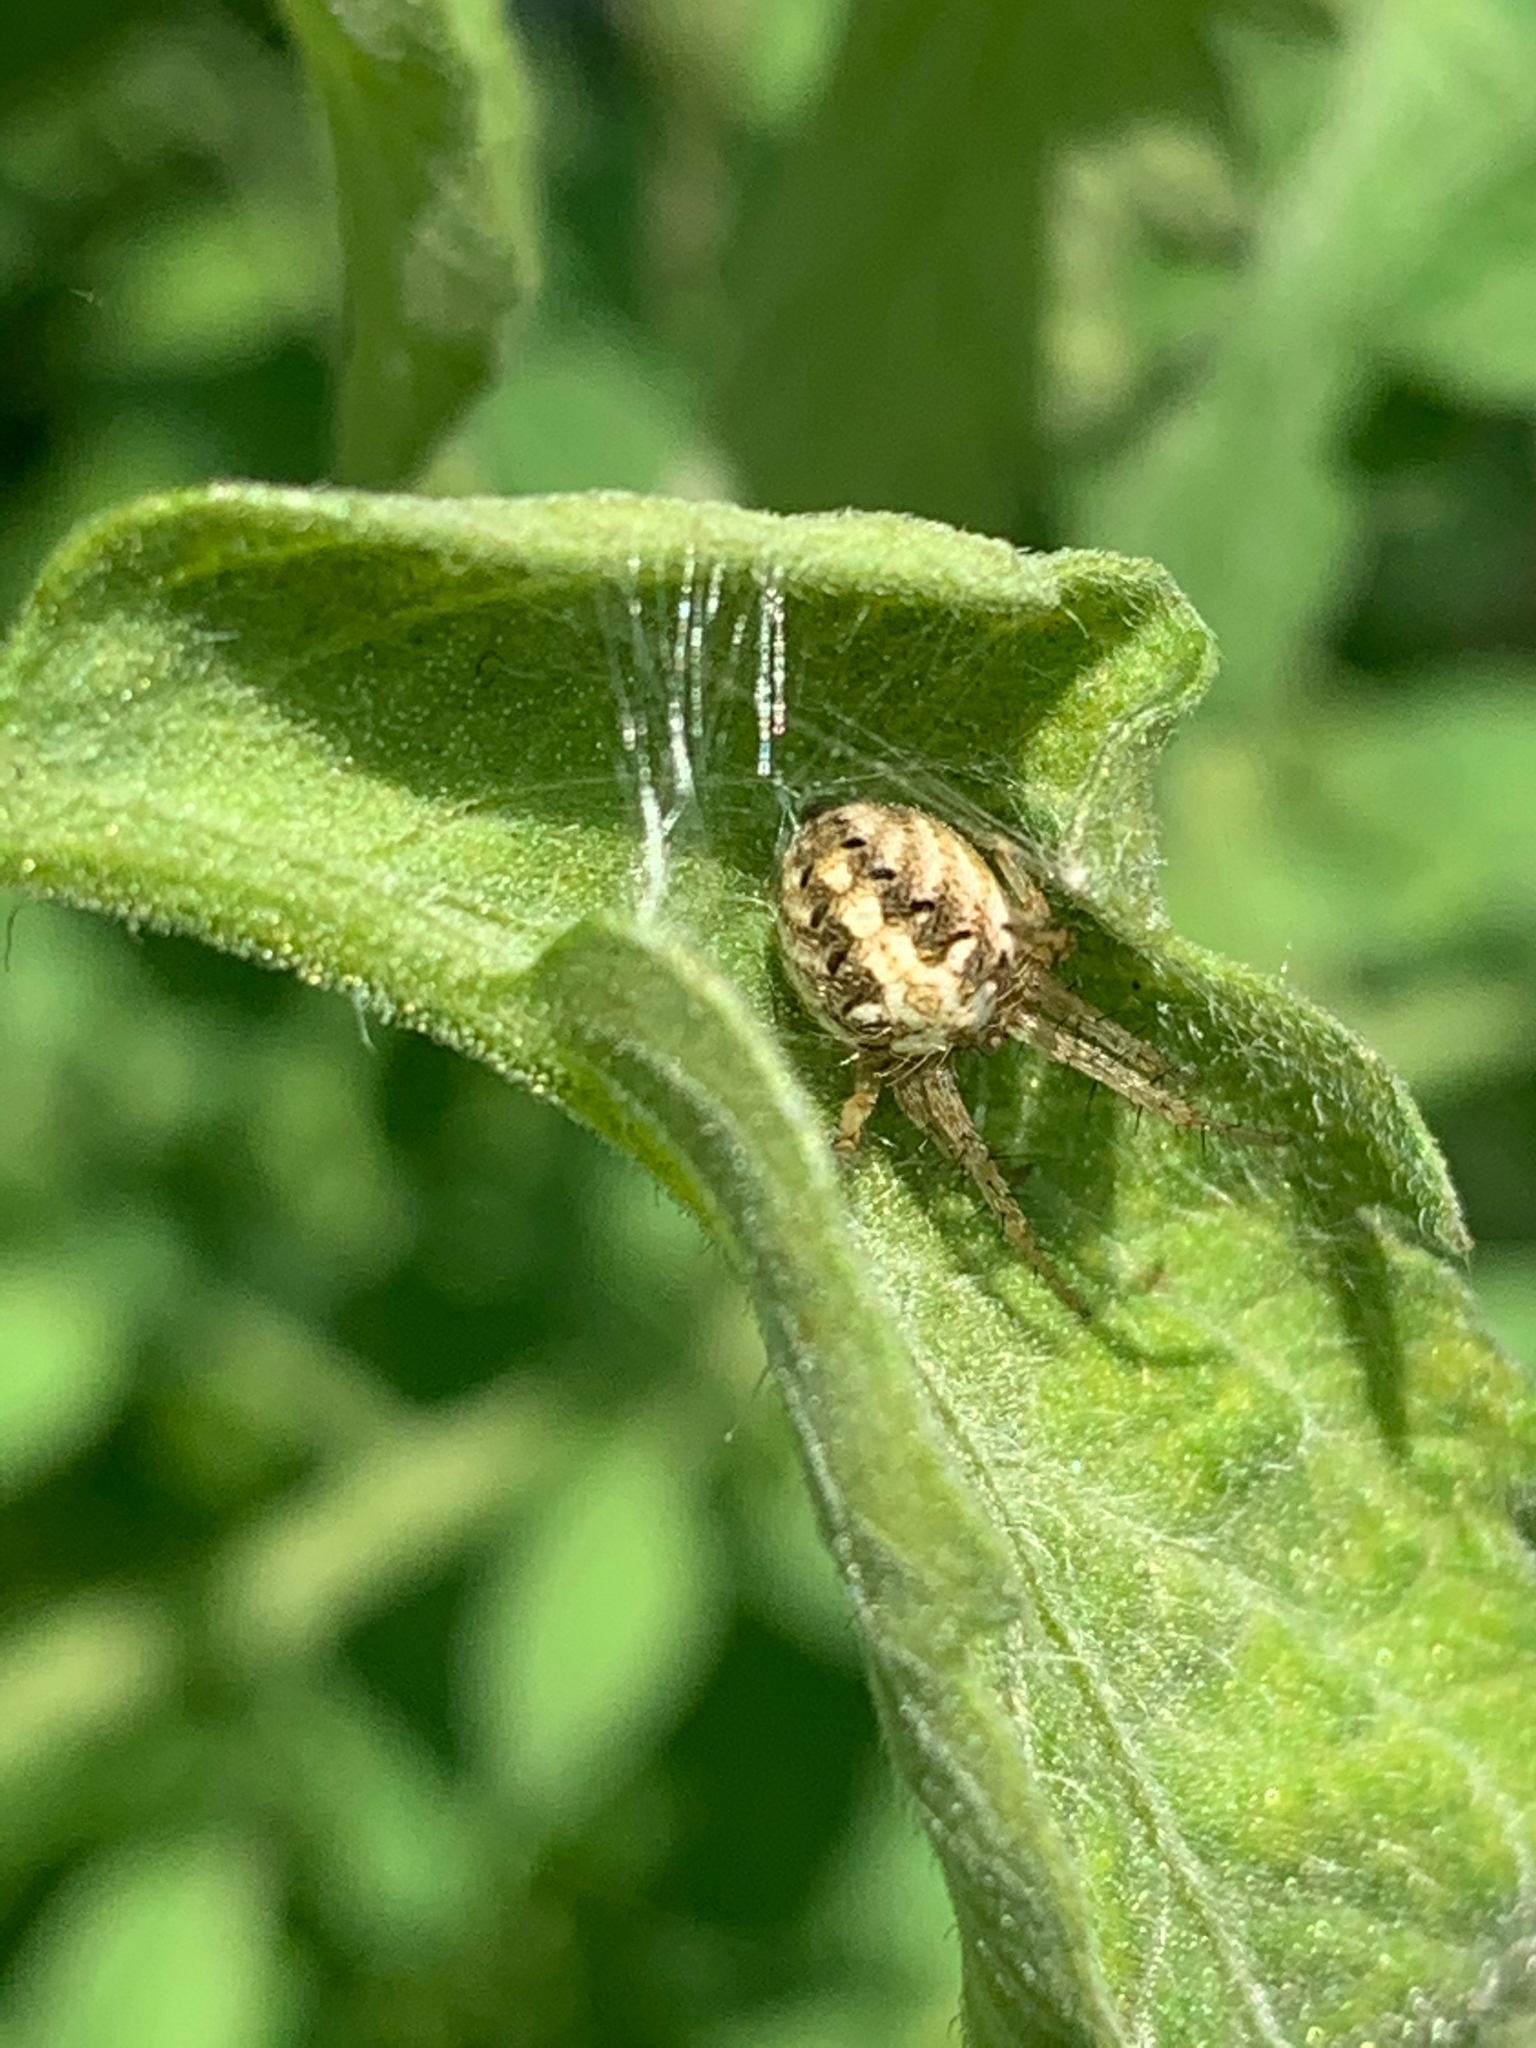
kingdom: Animalia
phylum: Arthropoda
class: Arachnida
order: Araneae
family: Araneidae
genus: Neoscona
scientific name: Neoscona arabesca
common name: Orb weavers
